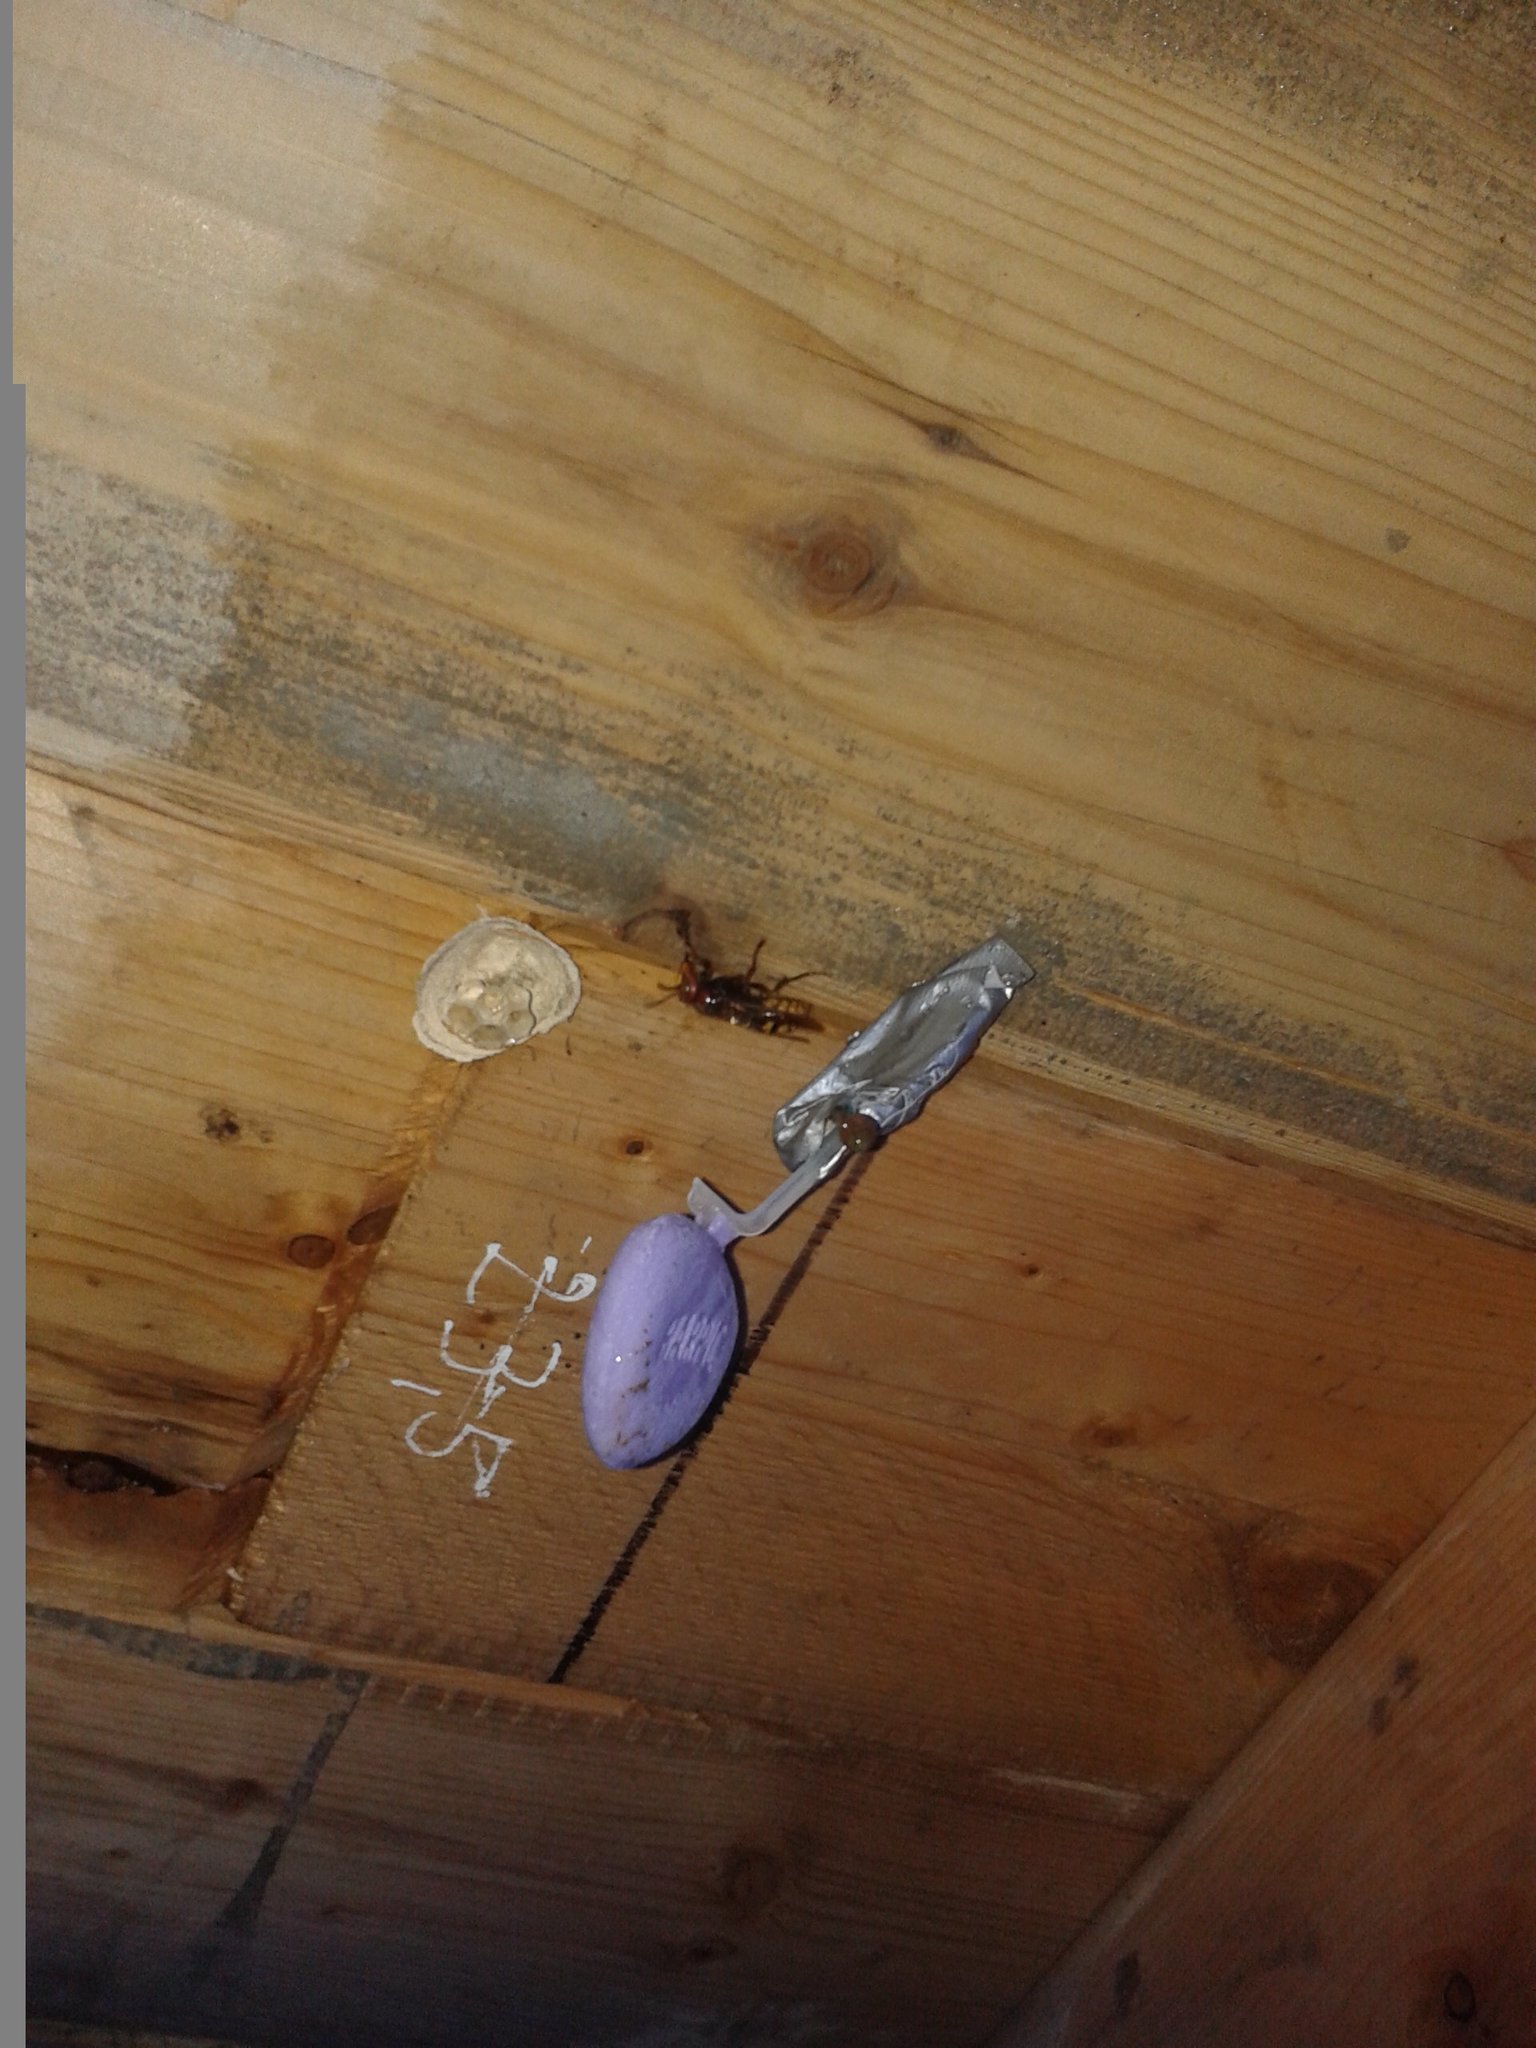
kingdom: Animalia
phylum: Arthropoda
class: Insecta
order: Hymenoptera
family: Vespidae
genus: Vespa
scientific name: Vespa crabro
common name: Hornet
